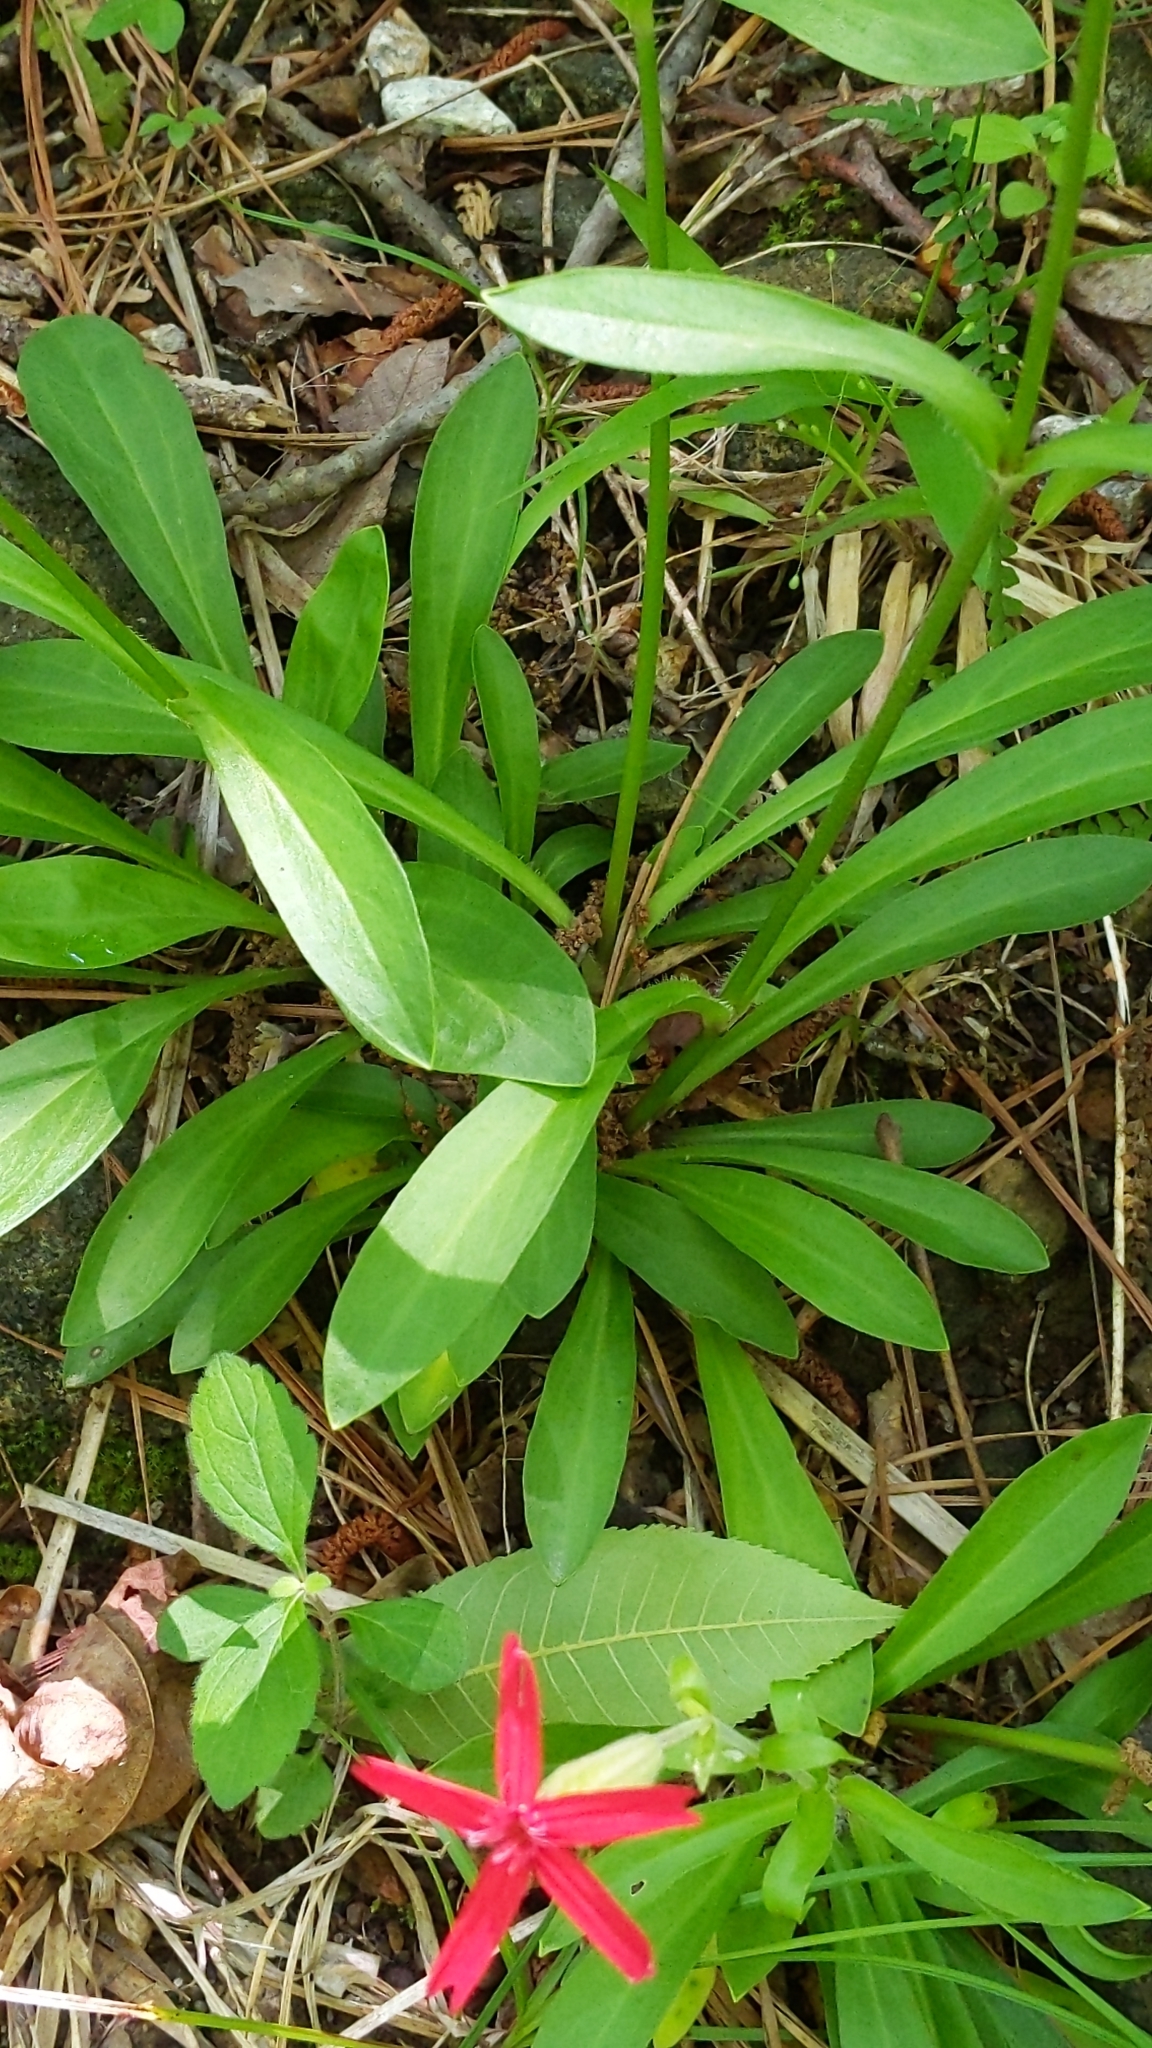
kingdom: Plantae
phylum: Tracheophyta
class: Magnoliopsida
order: Caryophyllales
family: Caryophyllaceae
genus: Silene
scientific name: Silene virginica
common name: Fire-pink
